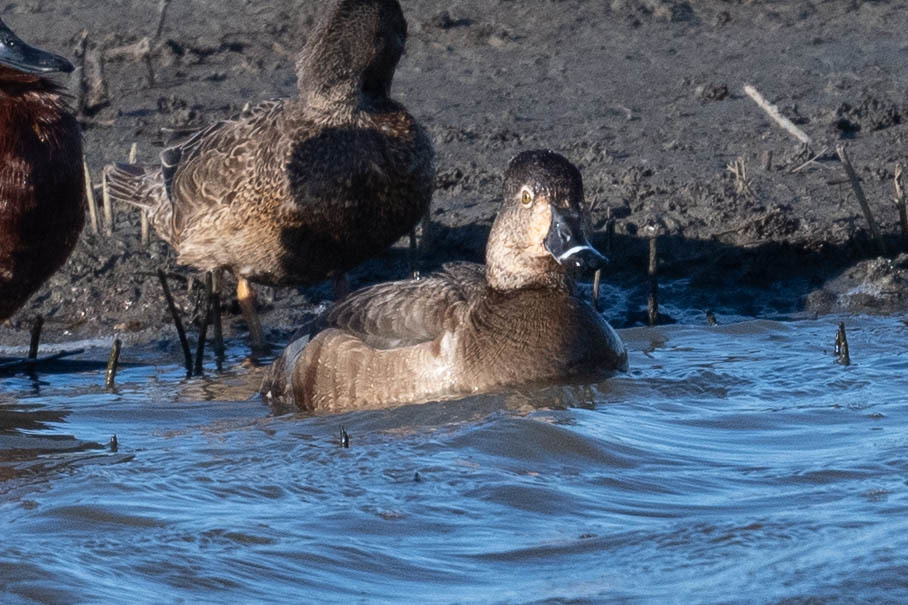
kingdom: Animalia
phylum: Chordata
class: Aves
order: Anseriformes
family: Anatidae
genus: Aythya
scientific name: Aythya collaris
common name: Ring-necked duck
